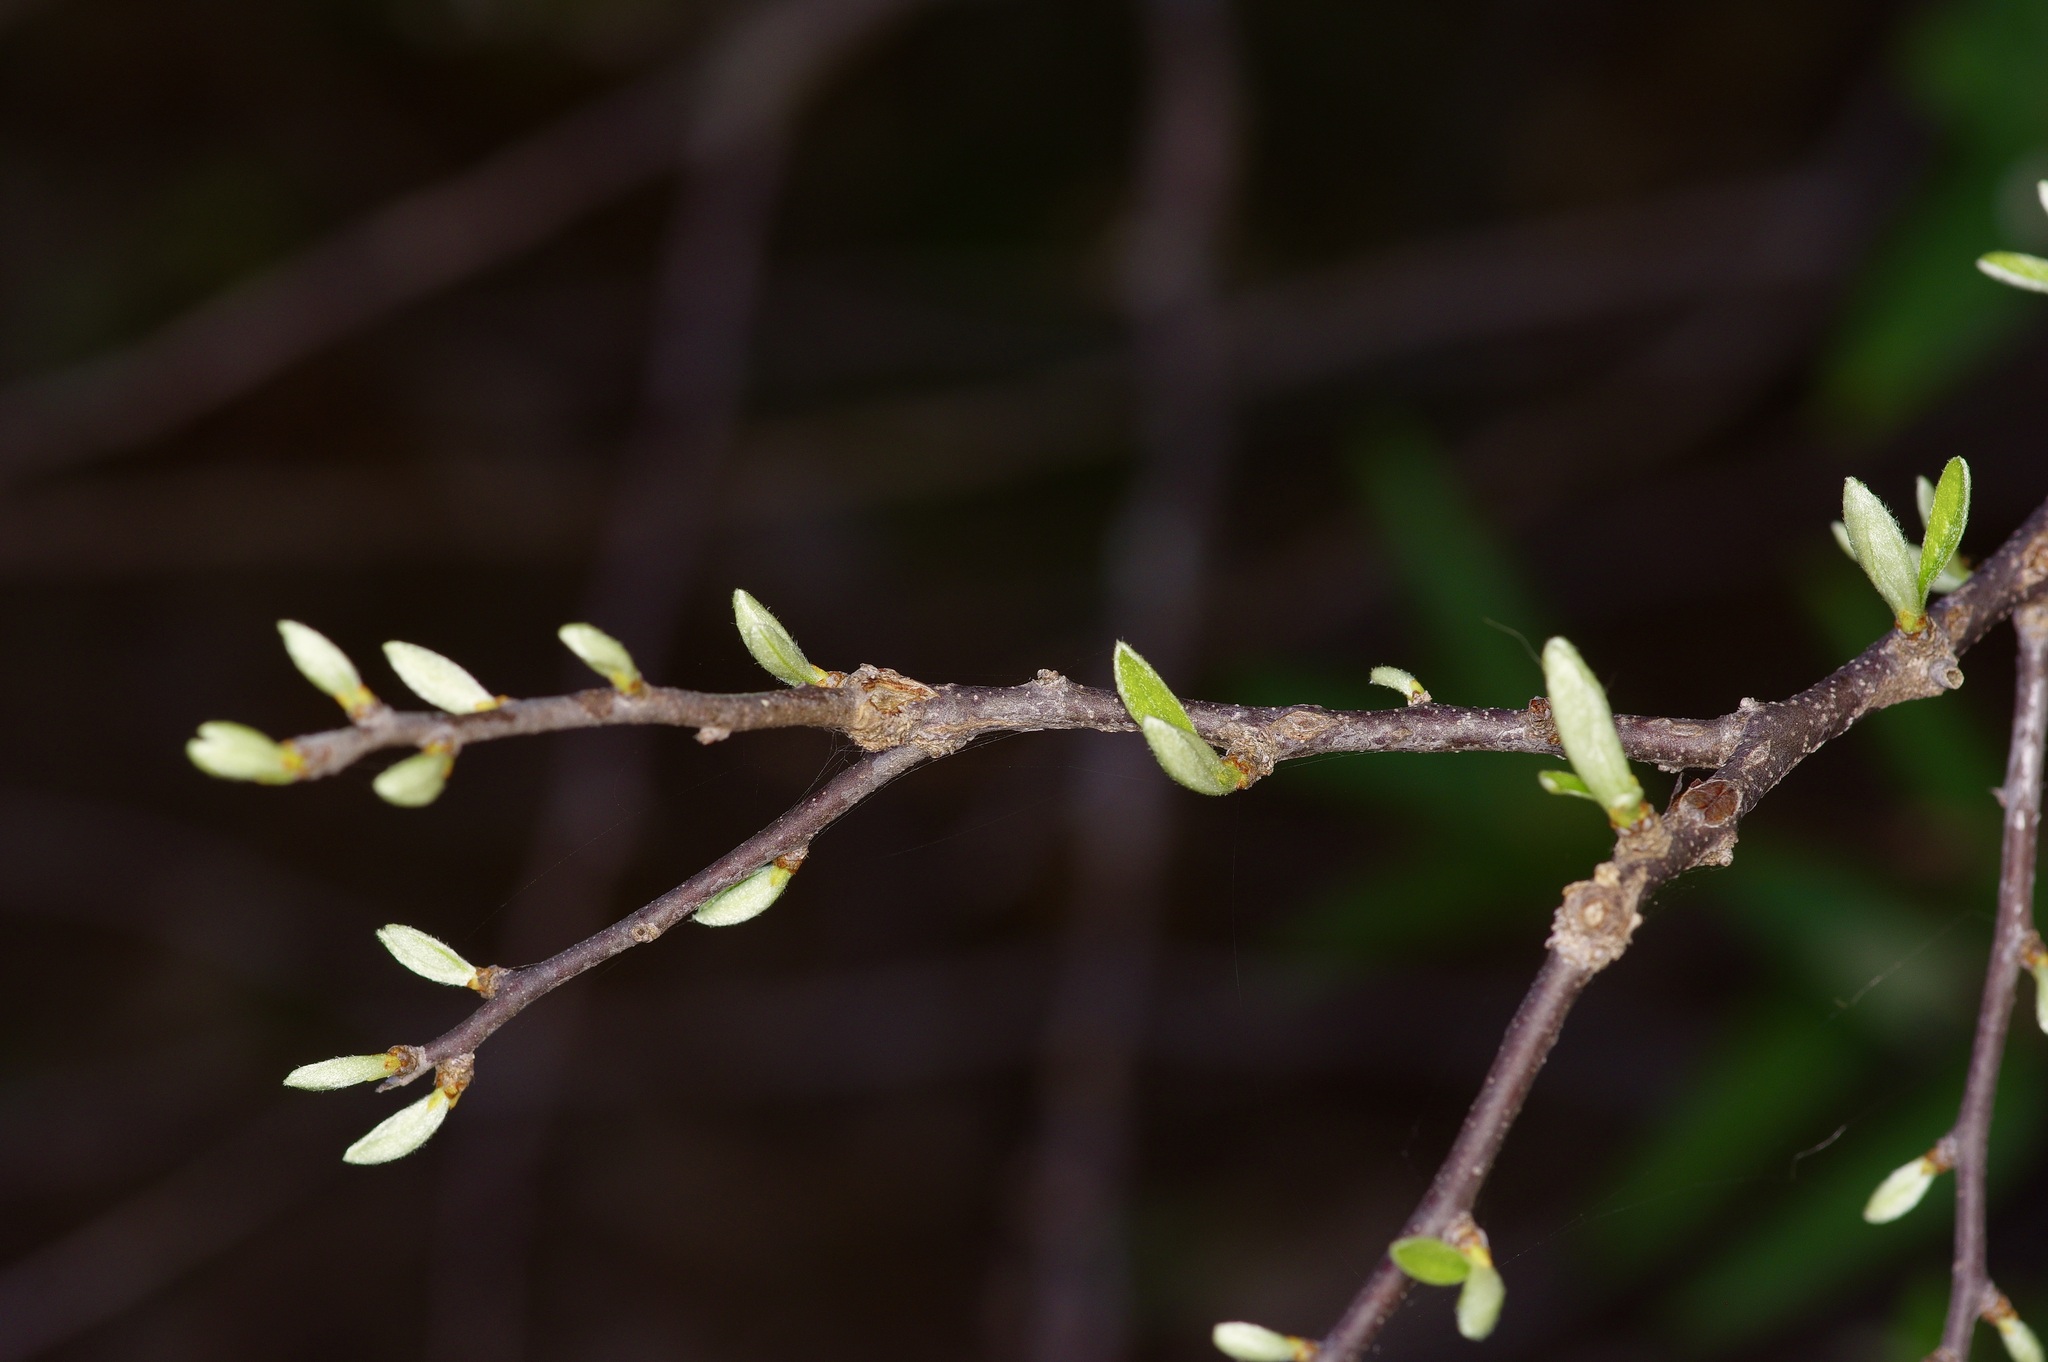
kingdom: Plantae
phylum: Tracheophyta
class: Magnoliopsida
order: Ericales
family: Sapotaceae
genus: Sideroxylon
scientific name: Sideroxylon lanuginosum
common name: Chittamwood
